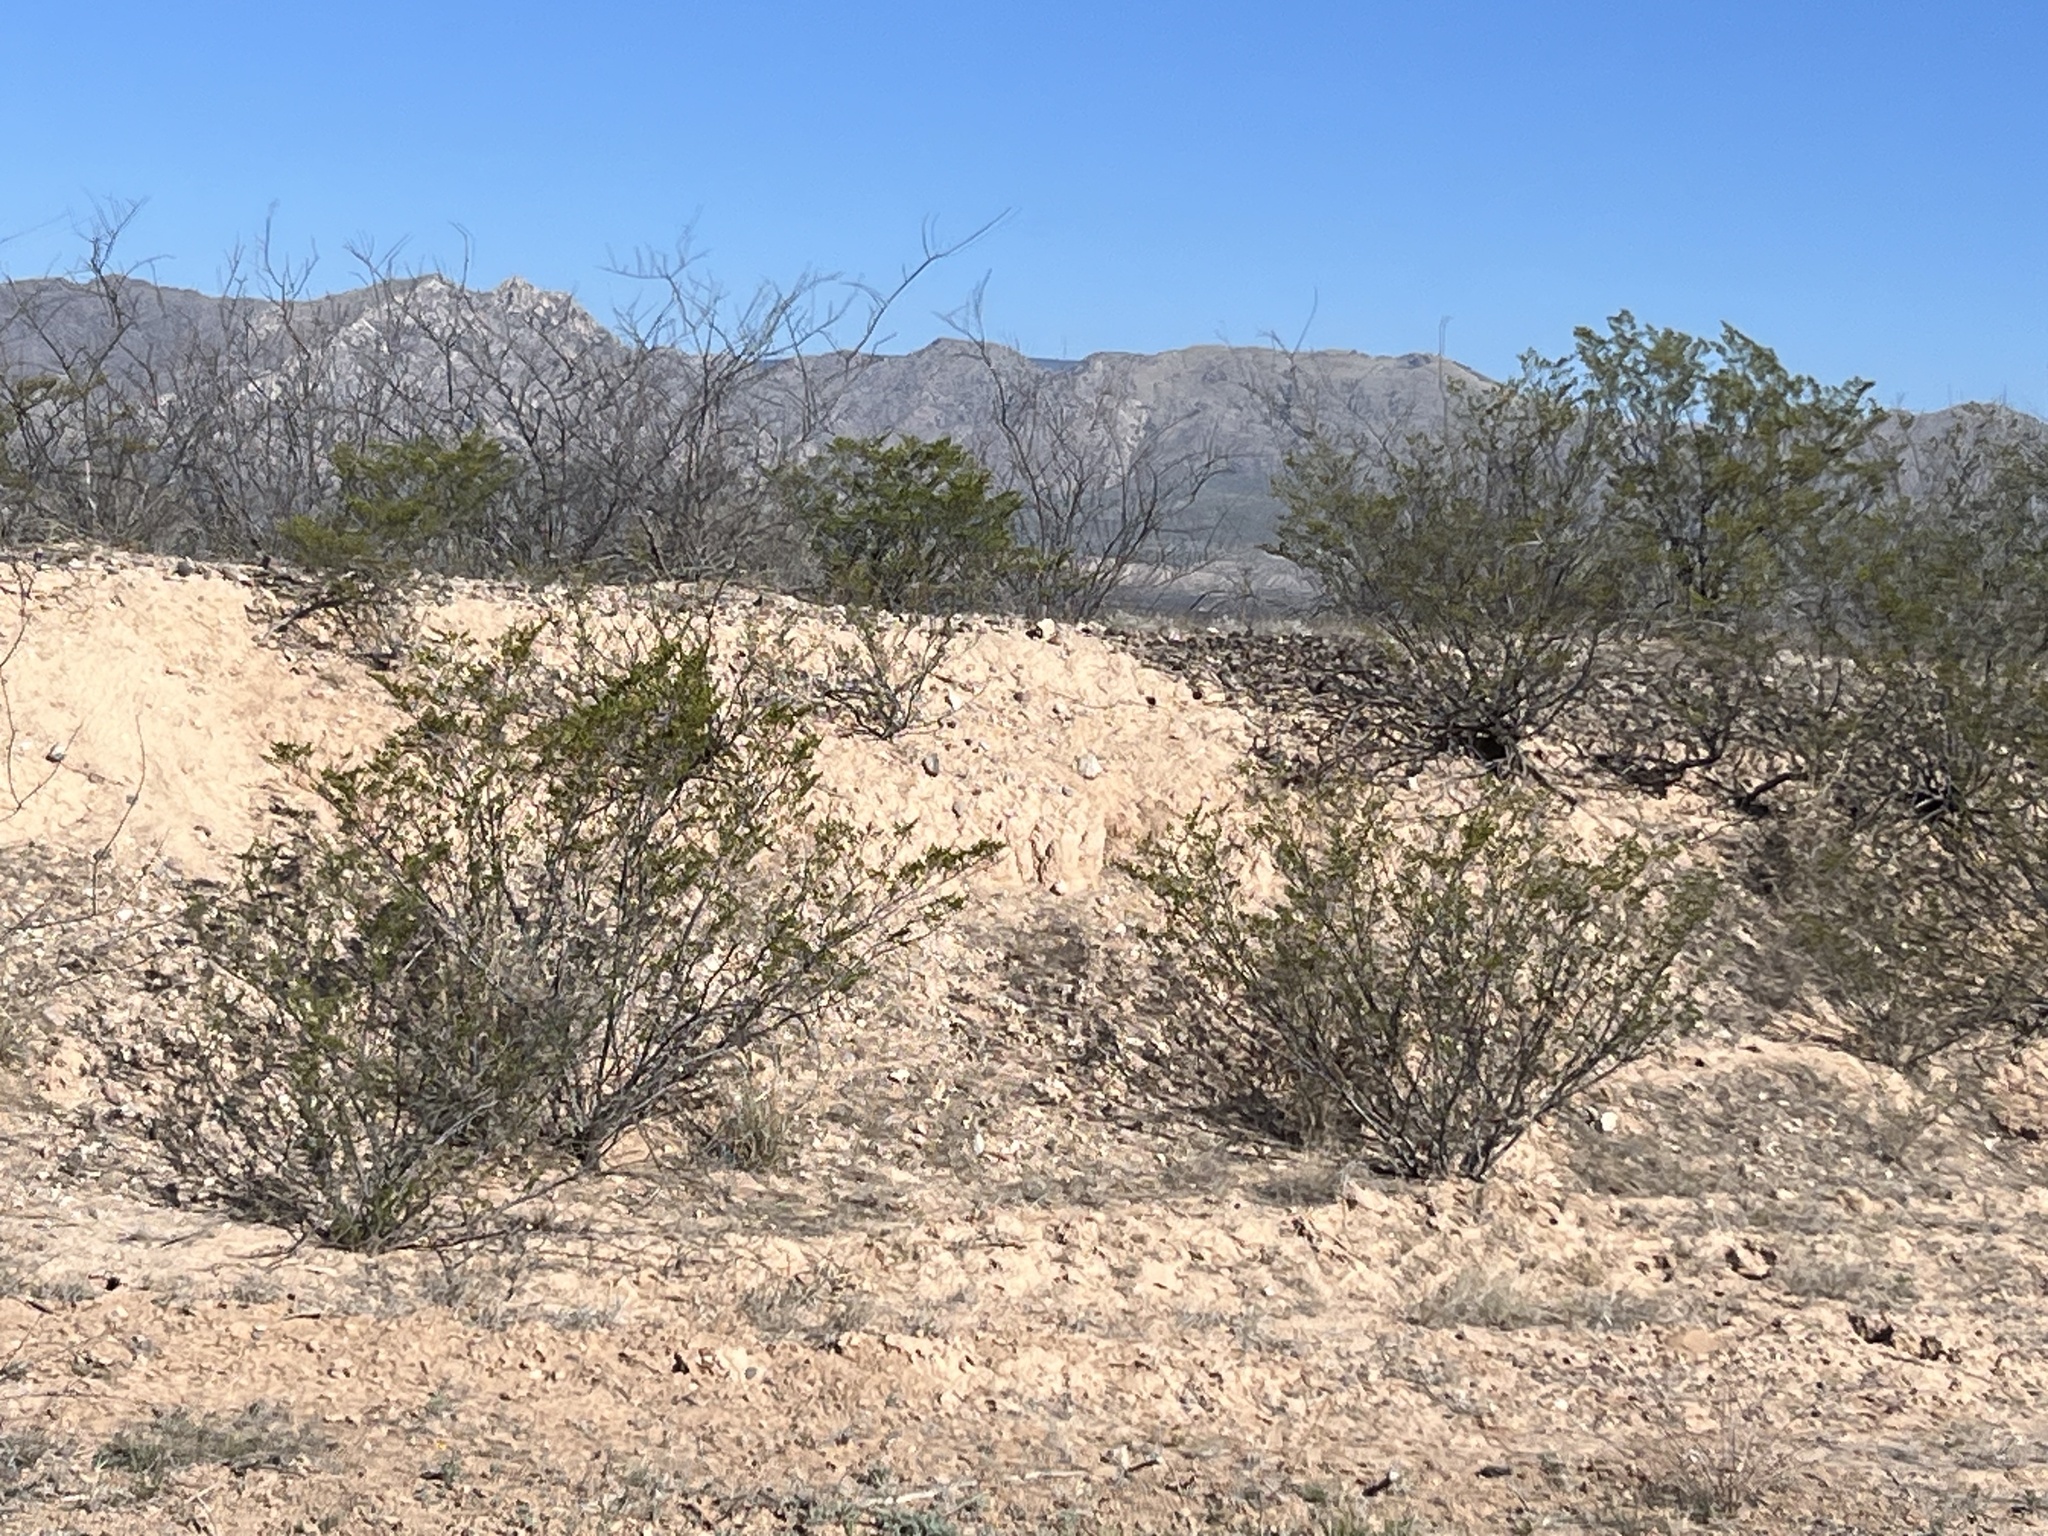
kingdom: Plantae
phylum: Tracheophyta
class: Magnoliopsida
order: Zygophyllales
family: Zygophyllaceae
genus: Larrea
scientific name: Larrea tridentata
